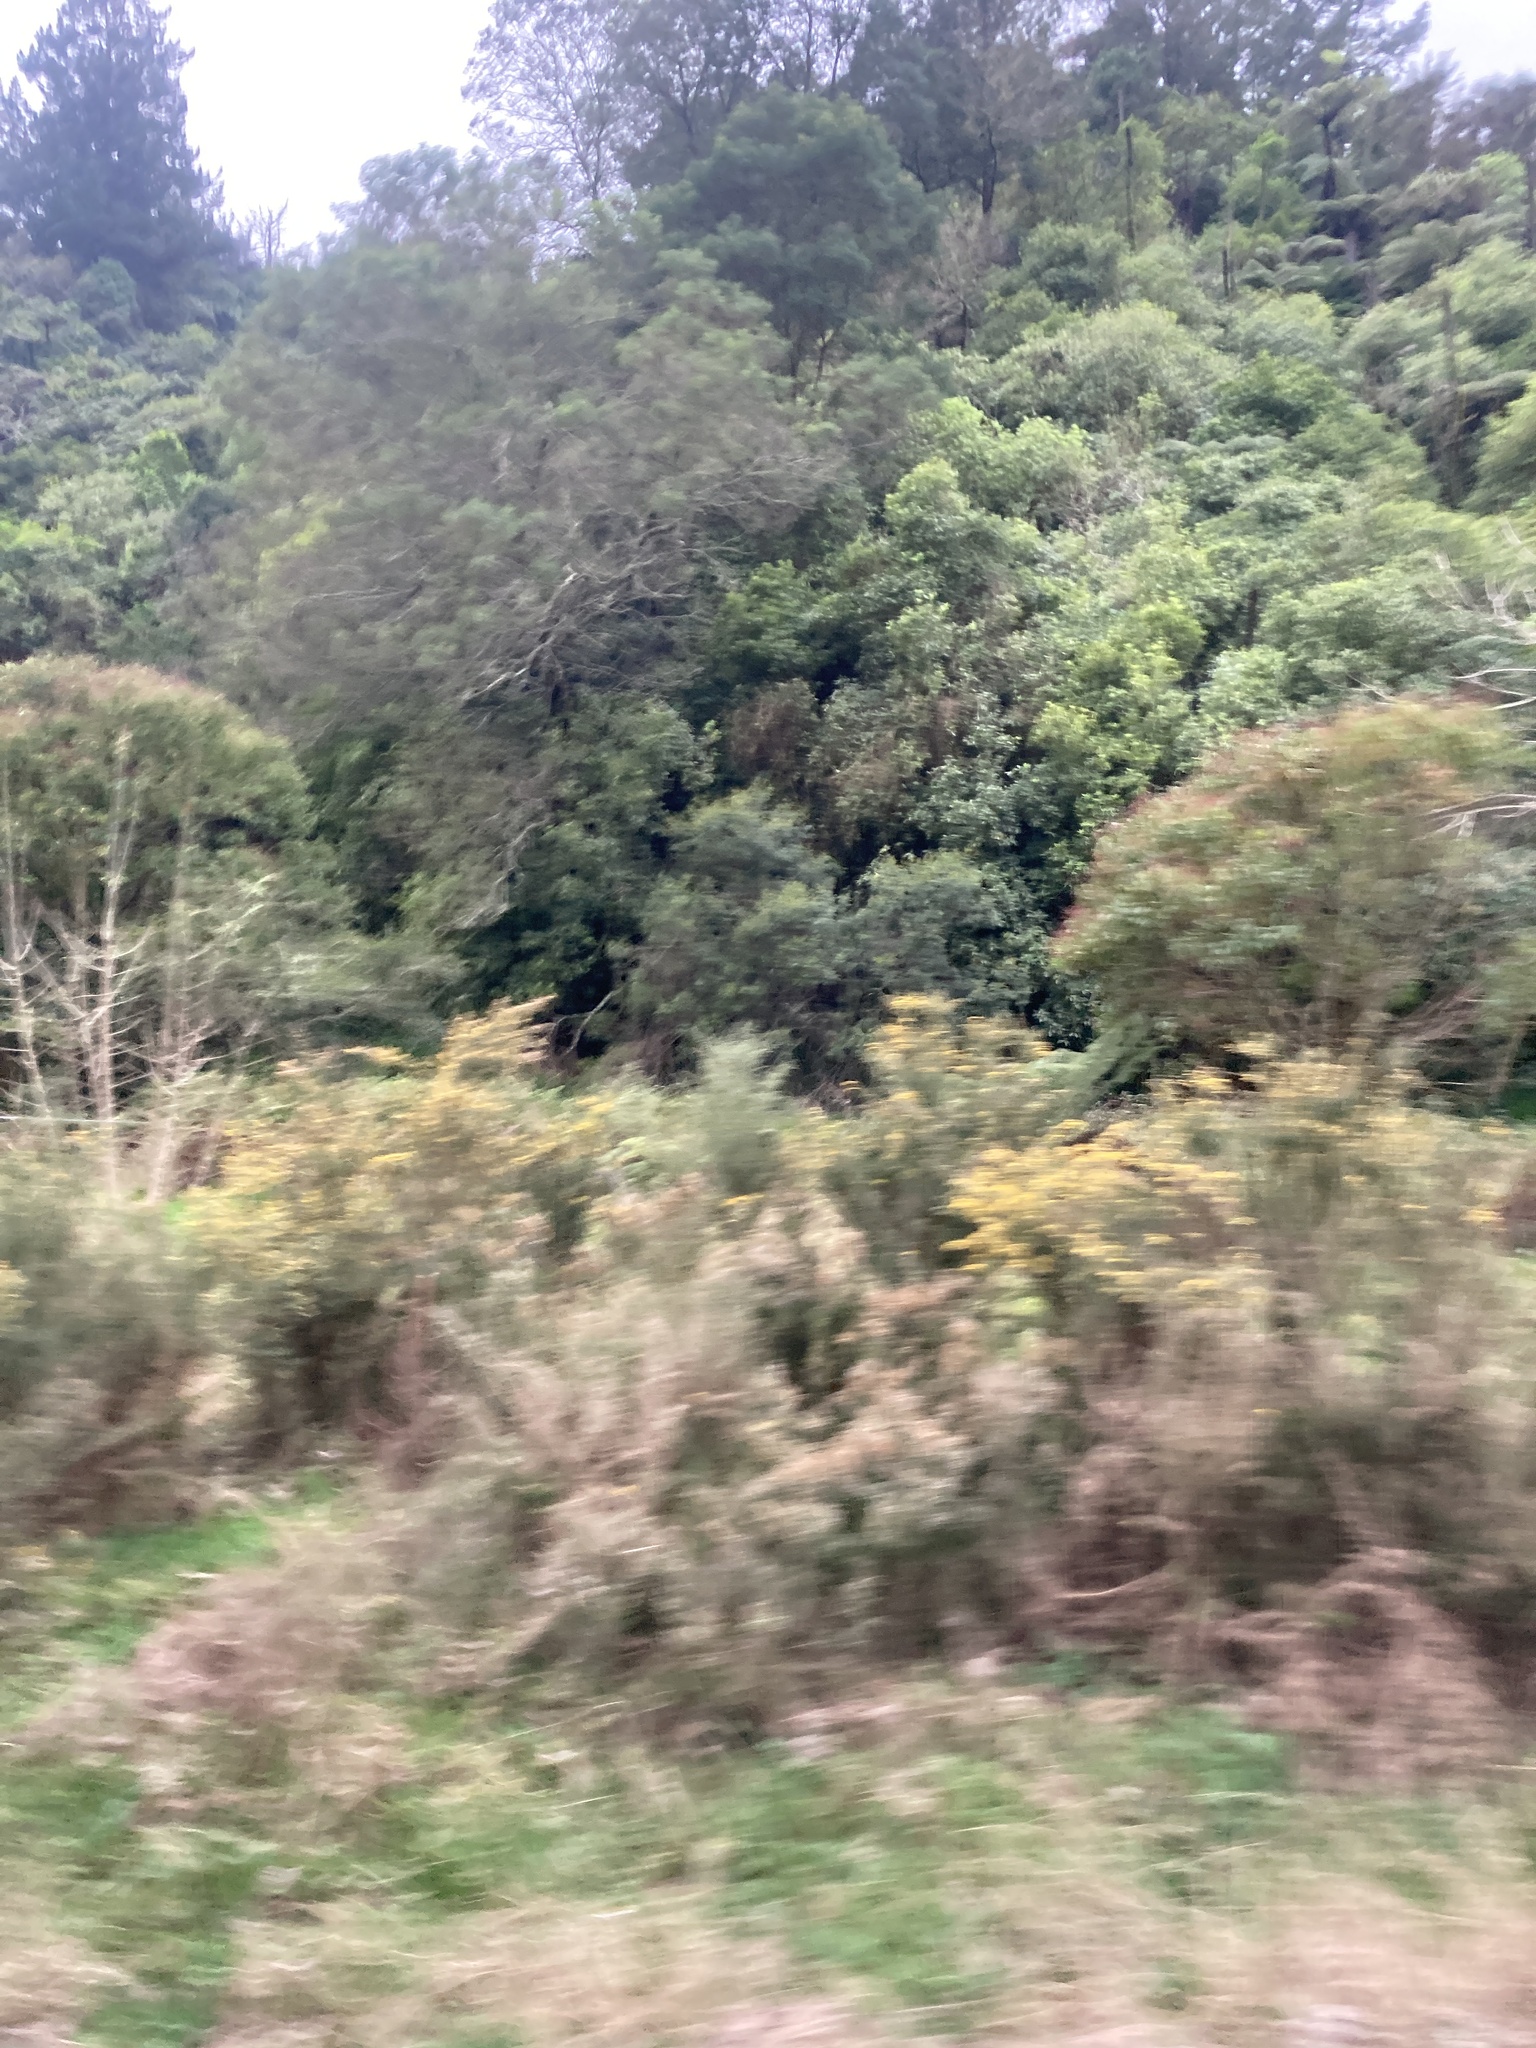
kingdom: Plantae
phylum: Tracheophyta
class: Magnoliopsida
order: Fabales
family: Fabaceae
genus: Ulex
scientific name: Ulex europaeus
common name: Common gorse
